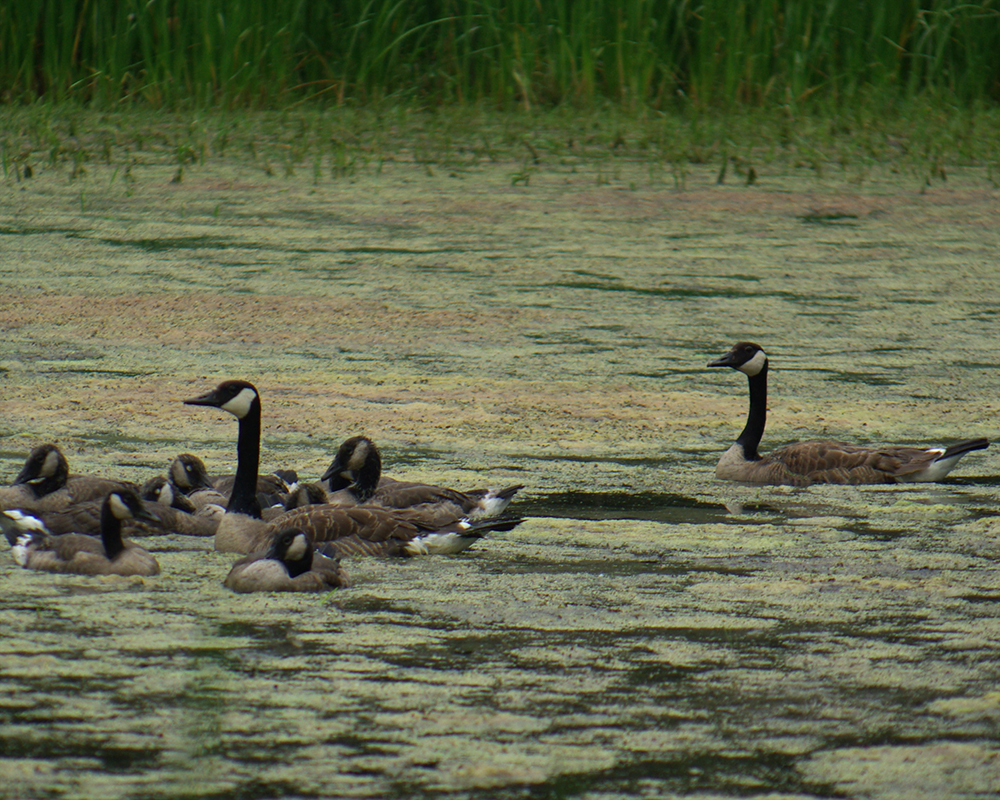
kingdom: Animalia
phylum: Chordata
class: Aves
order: Anseriformes
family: Anatidae
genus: Branta
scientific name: Branta canadensis
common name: Canada goose
